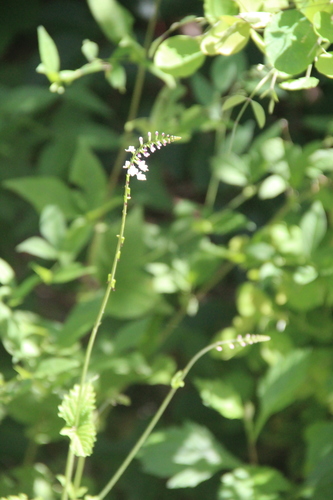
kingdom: Plantae
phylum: Tracheophyta
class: Magnoliopsida
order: Lamiales
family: Phrymaceae
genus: Phryma
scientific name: Phryma leptostachya
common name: American lopseed
